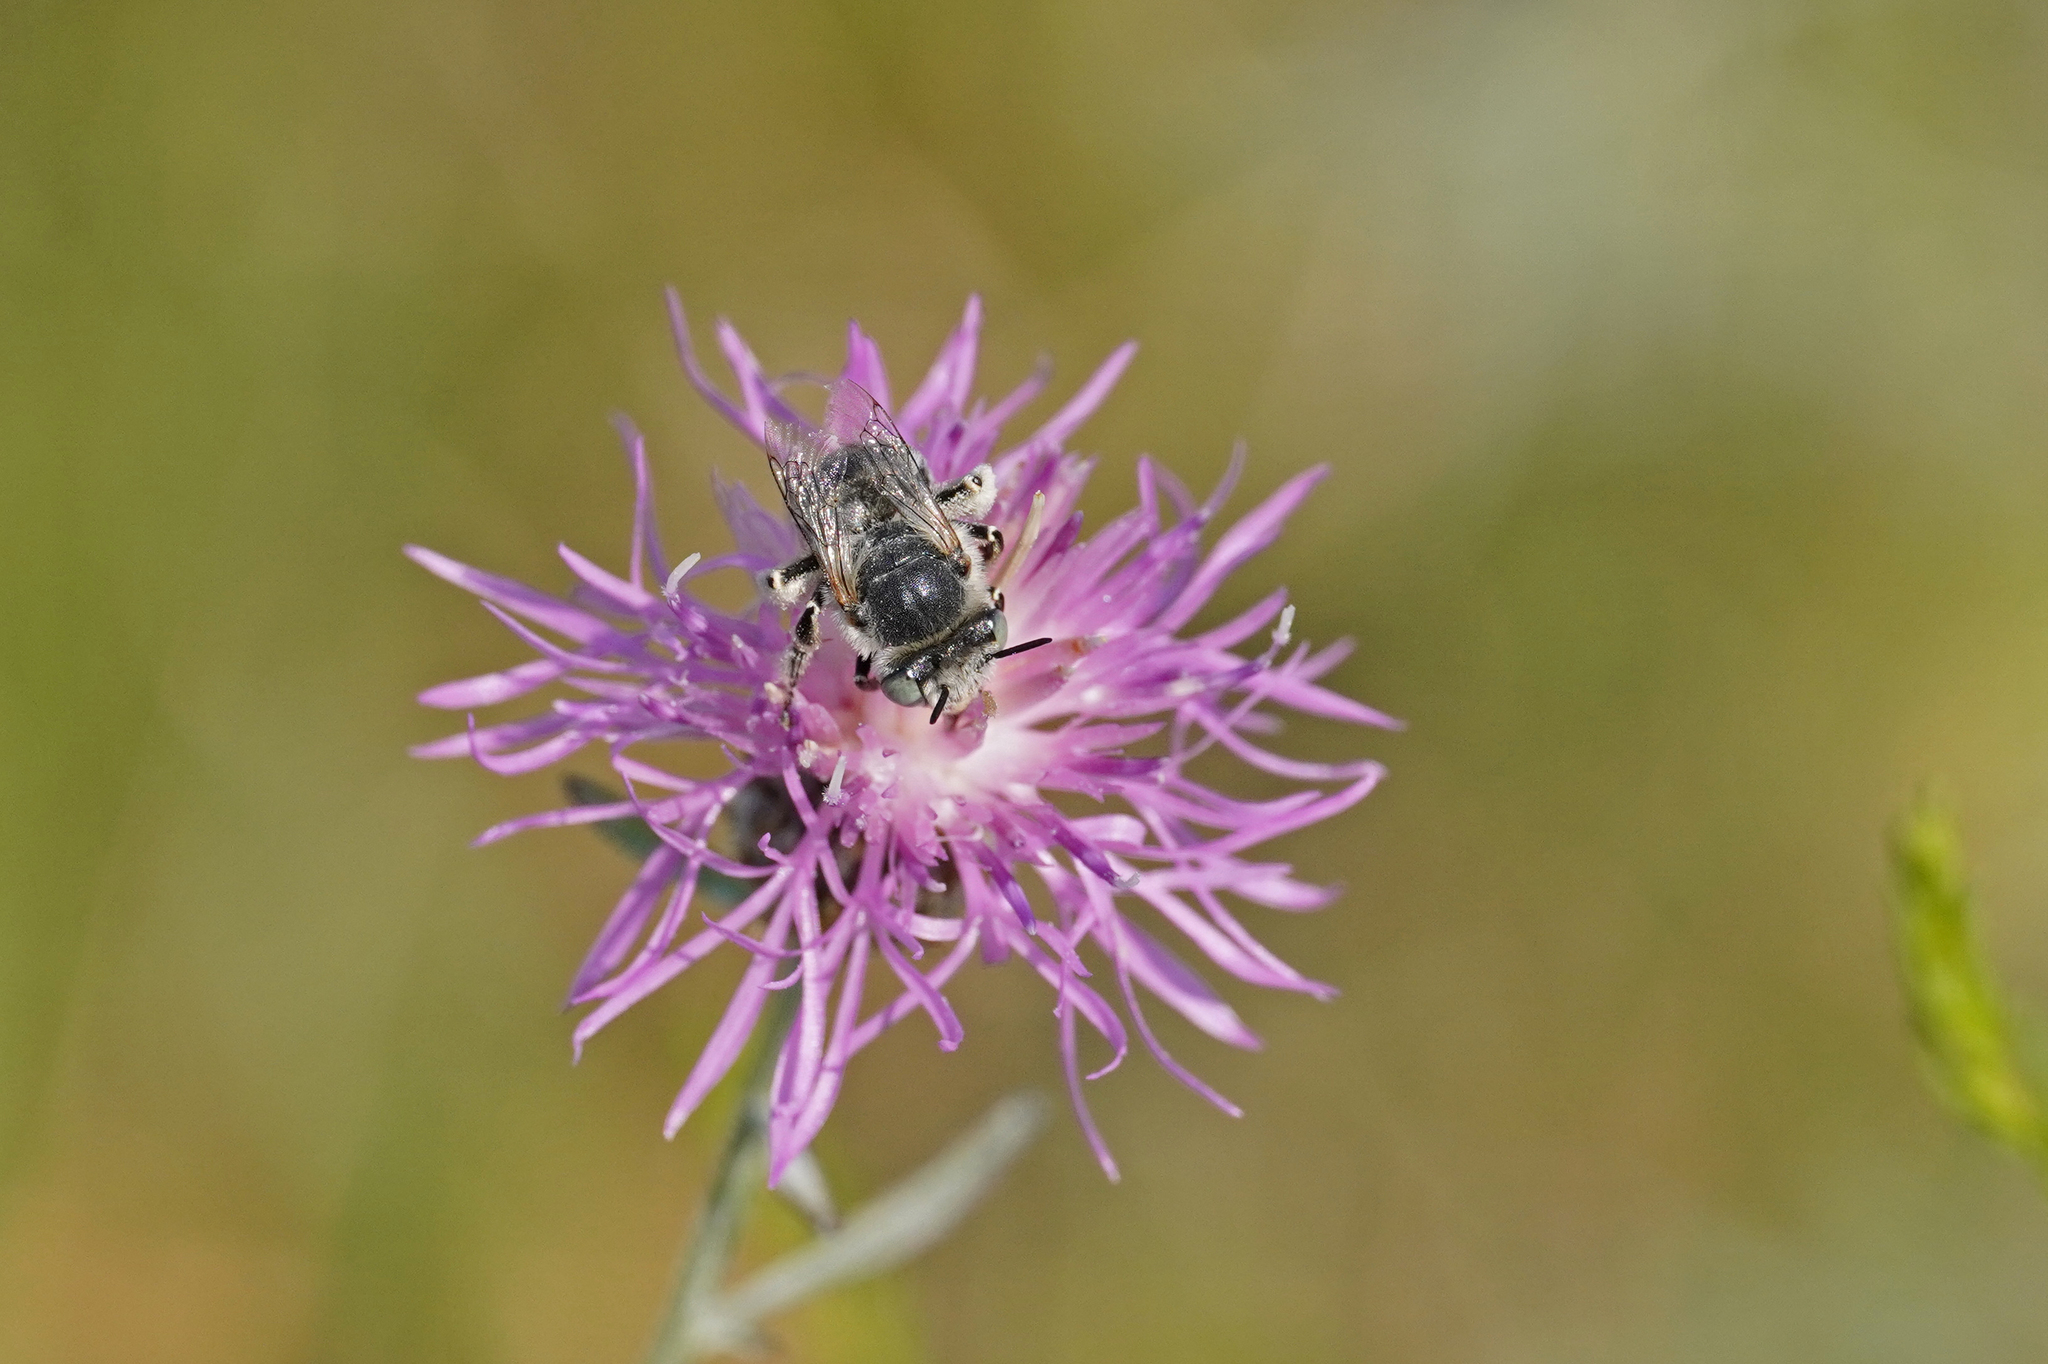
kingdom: Animalia
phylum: Arthropoda
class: Insecta
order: Hymenoptera
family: Apidae
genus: Anthophora
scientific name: Anthophora bimaculata
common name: Green-eyed flower bee
